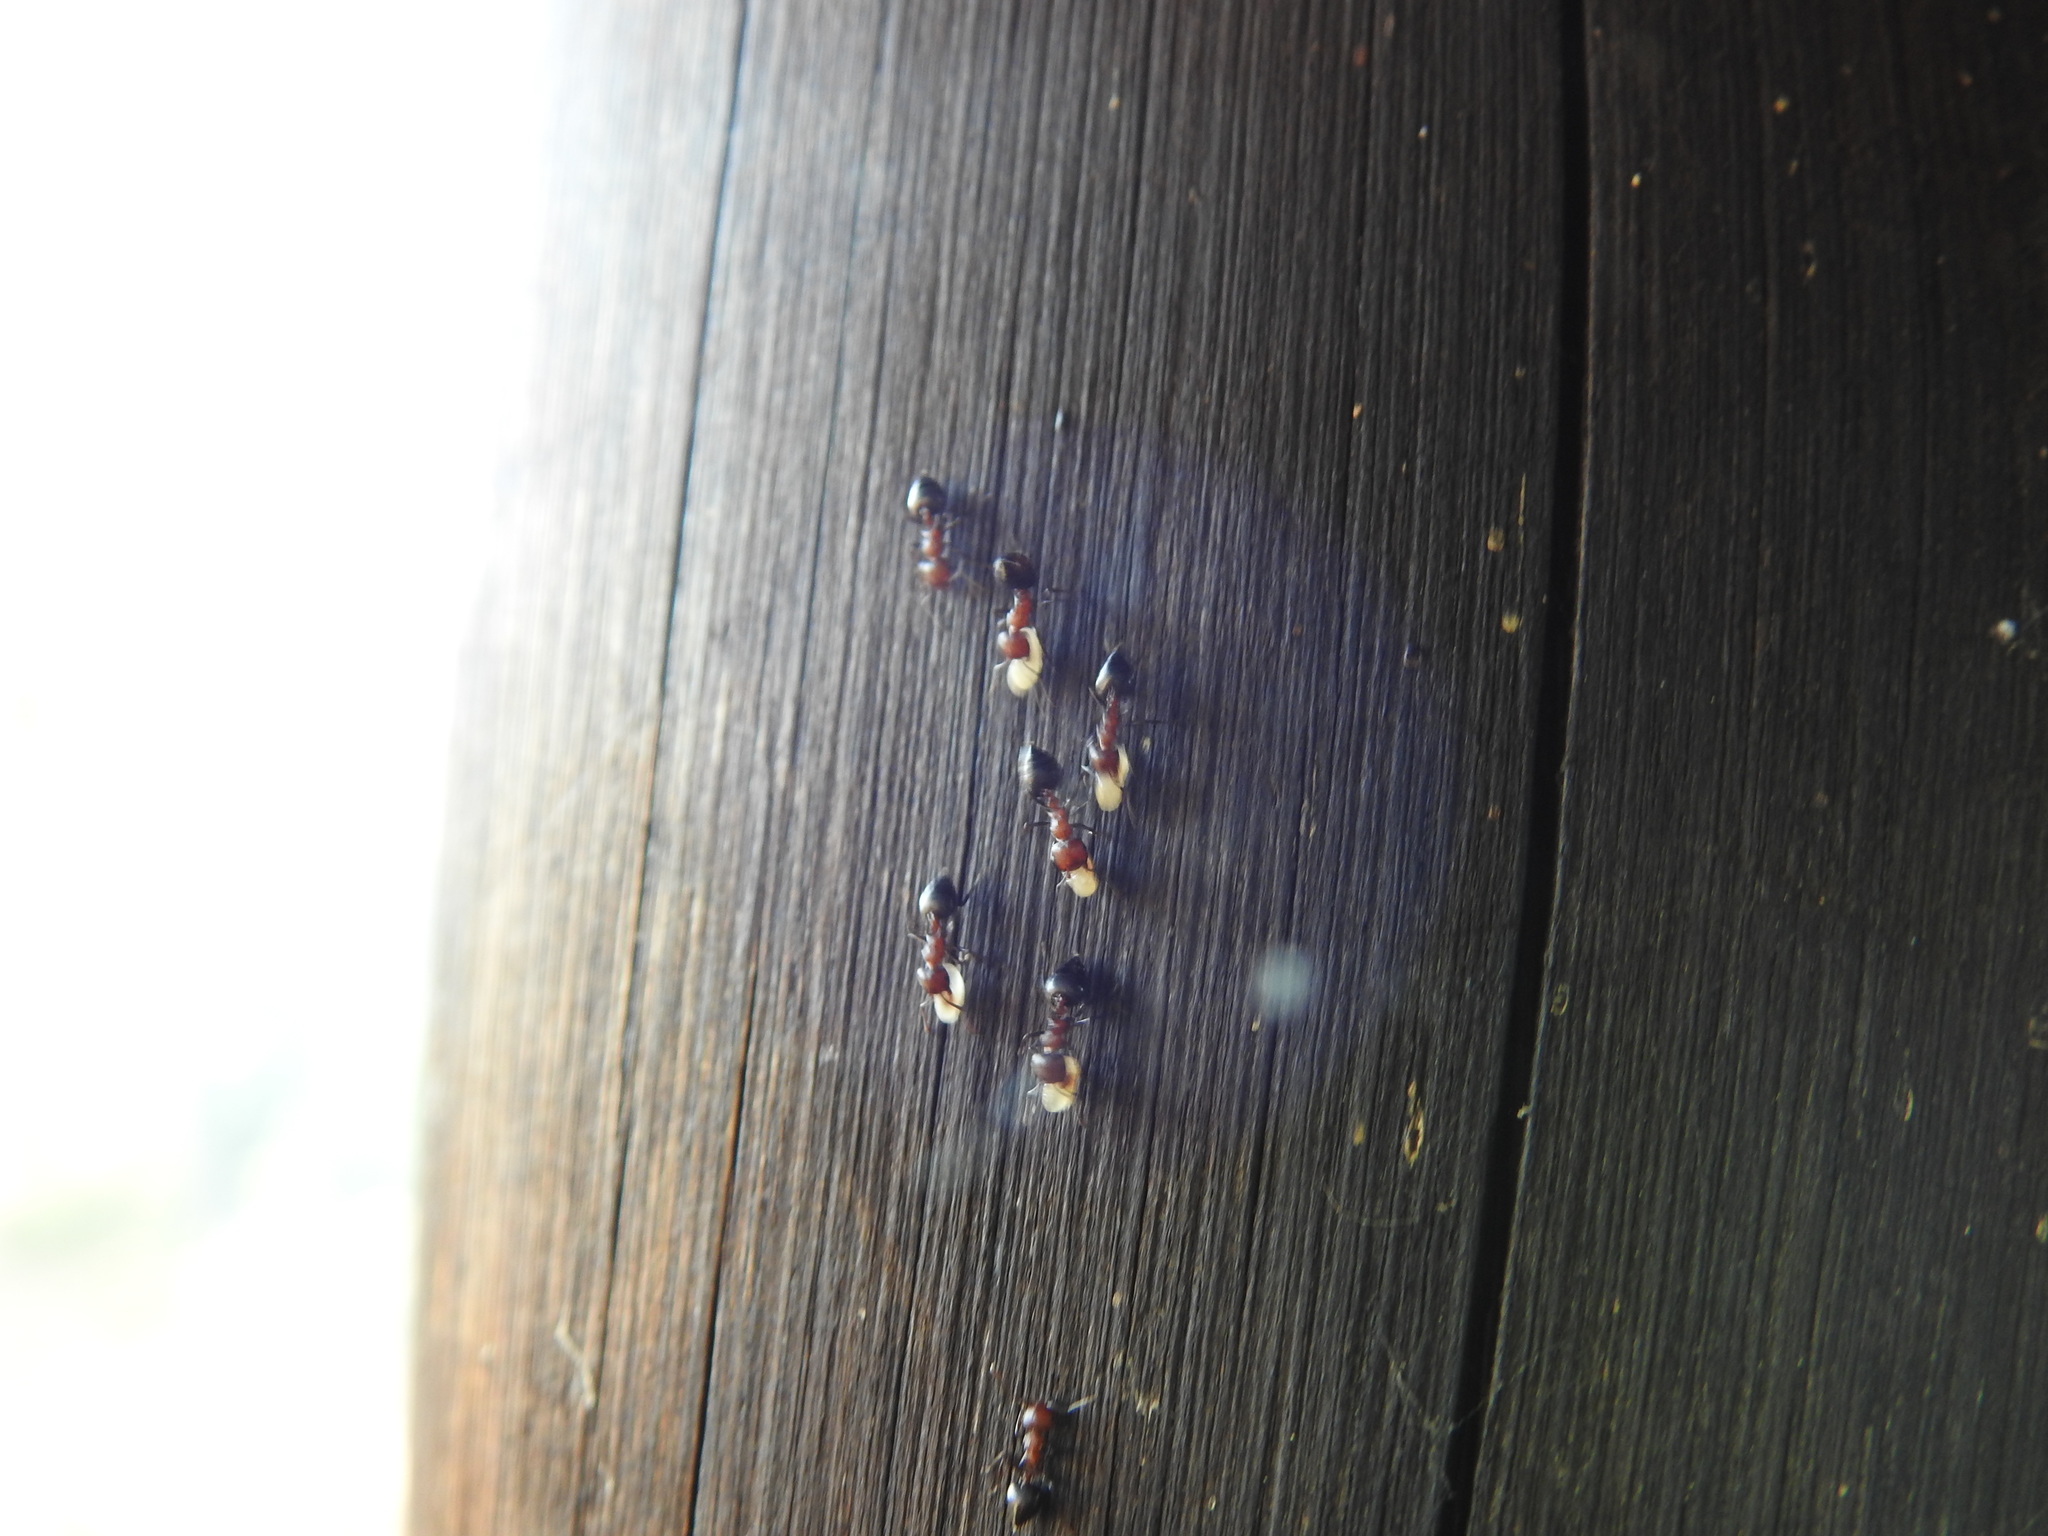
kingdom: Animalia
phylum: Arthropoda
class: Insecta
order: Hymenoptera
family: Formicidae
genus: Crematogaster
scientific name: Crematogaster castanea
